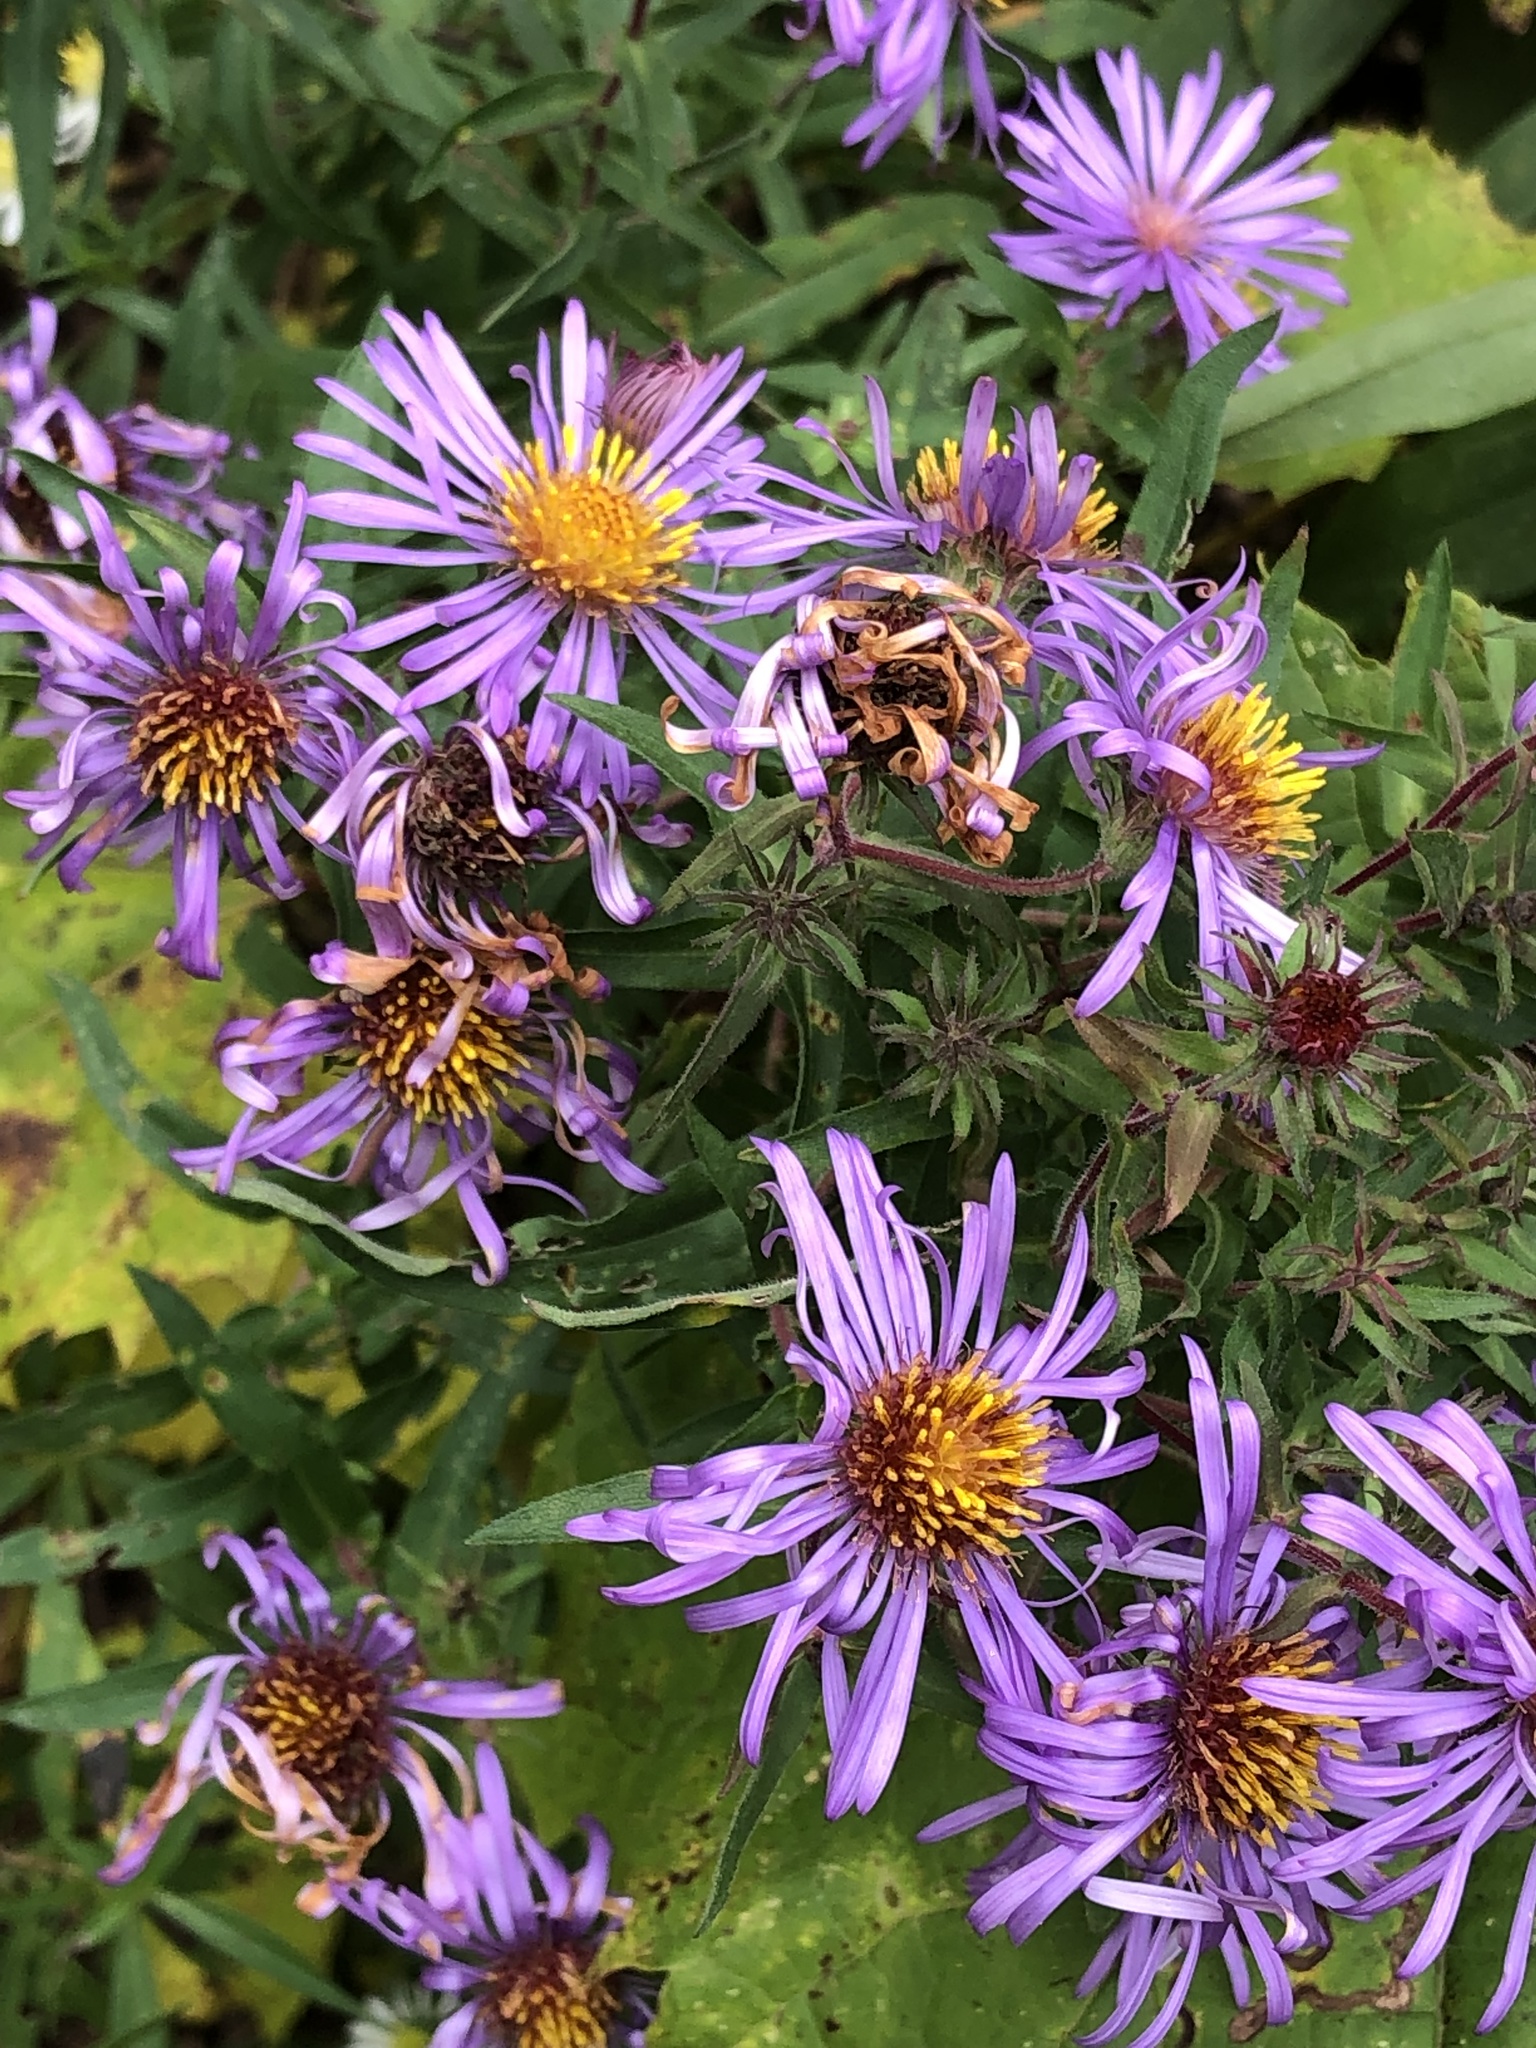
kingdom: Plantae
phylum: Tracheophyta
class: Magnoliopsida
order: Asterales
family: Asteraceae
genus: Symphyotrichum
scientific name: Symphyotrichum novae-angliae
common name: Michaelmas daisy
